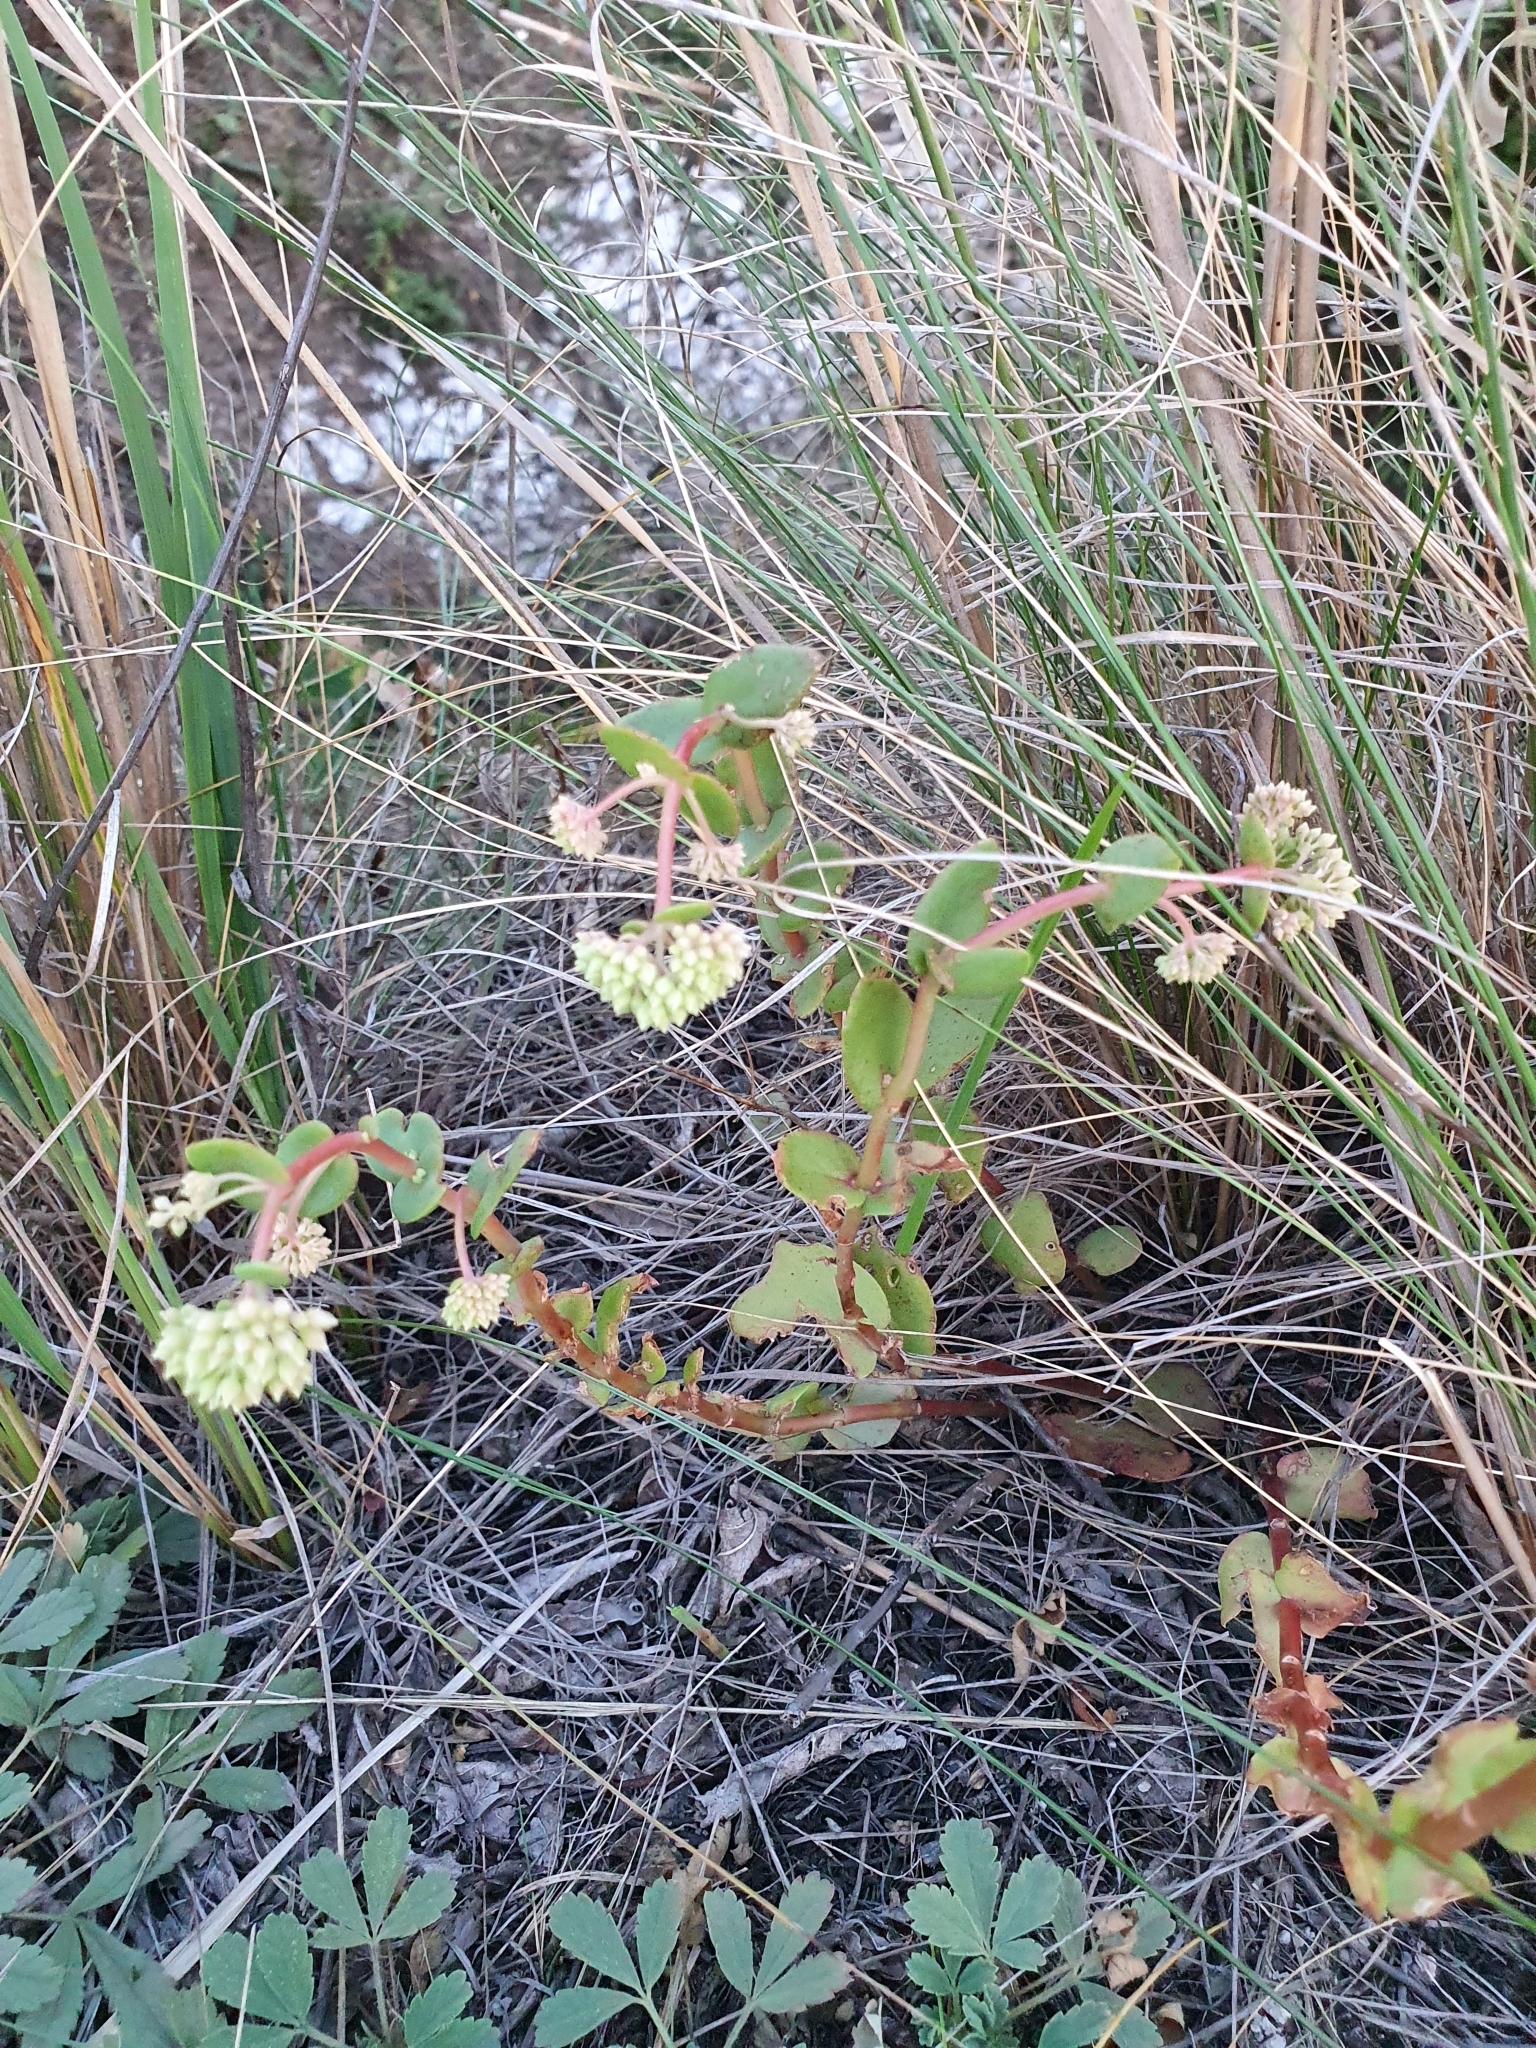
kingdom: Plantae
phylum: Tracheophyta
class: Magnoliopsida
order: Saxifragales
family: Crassulaceae
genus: Hylotelephium
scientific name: Hylotelephium maximum
